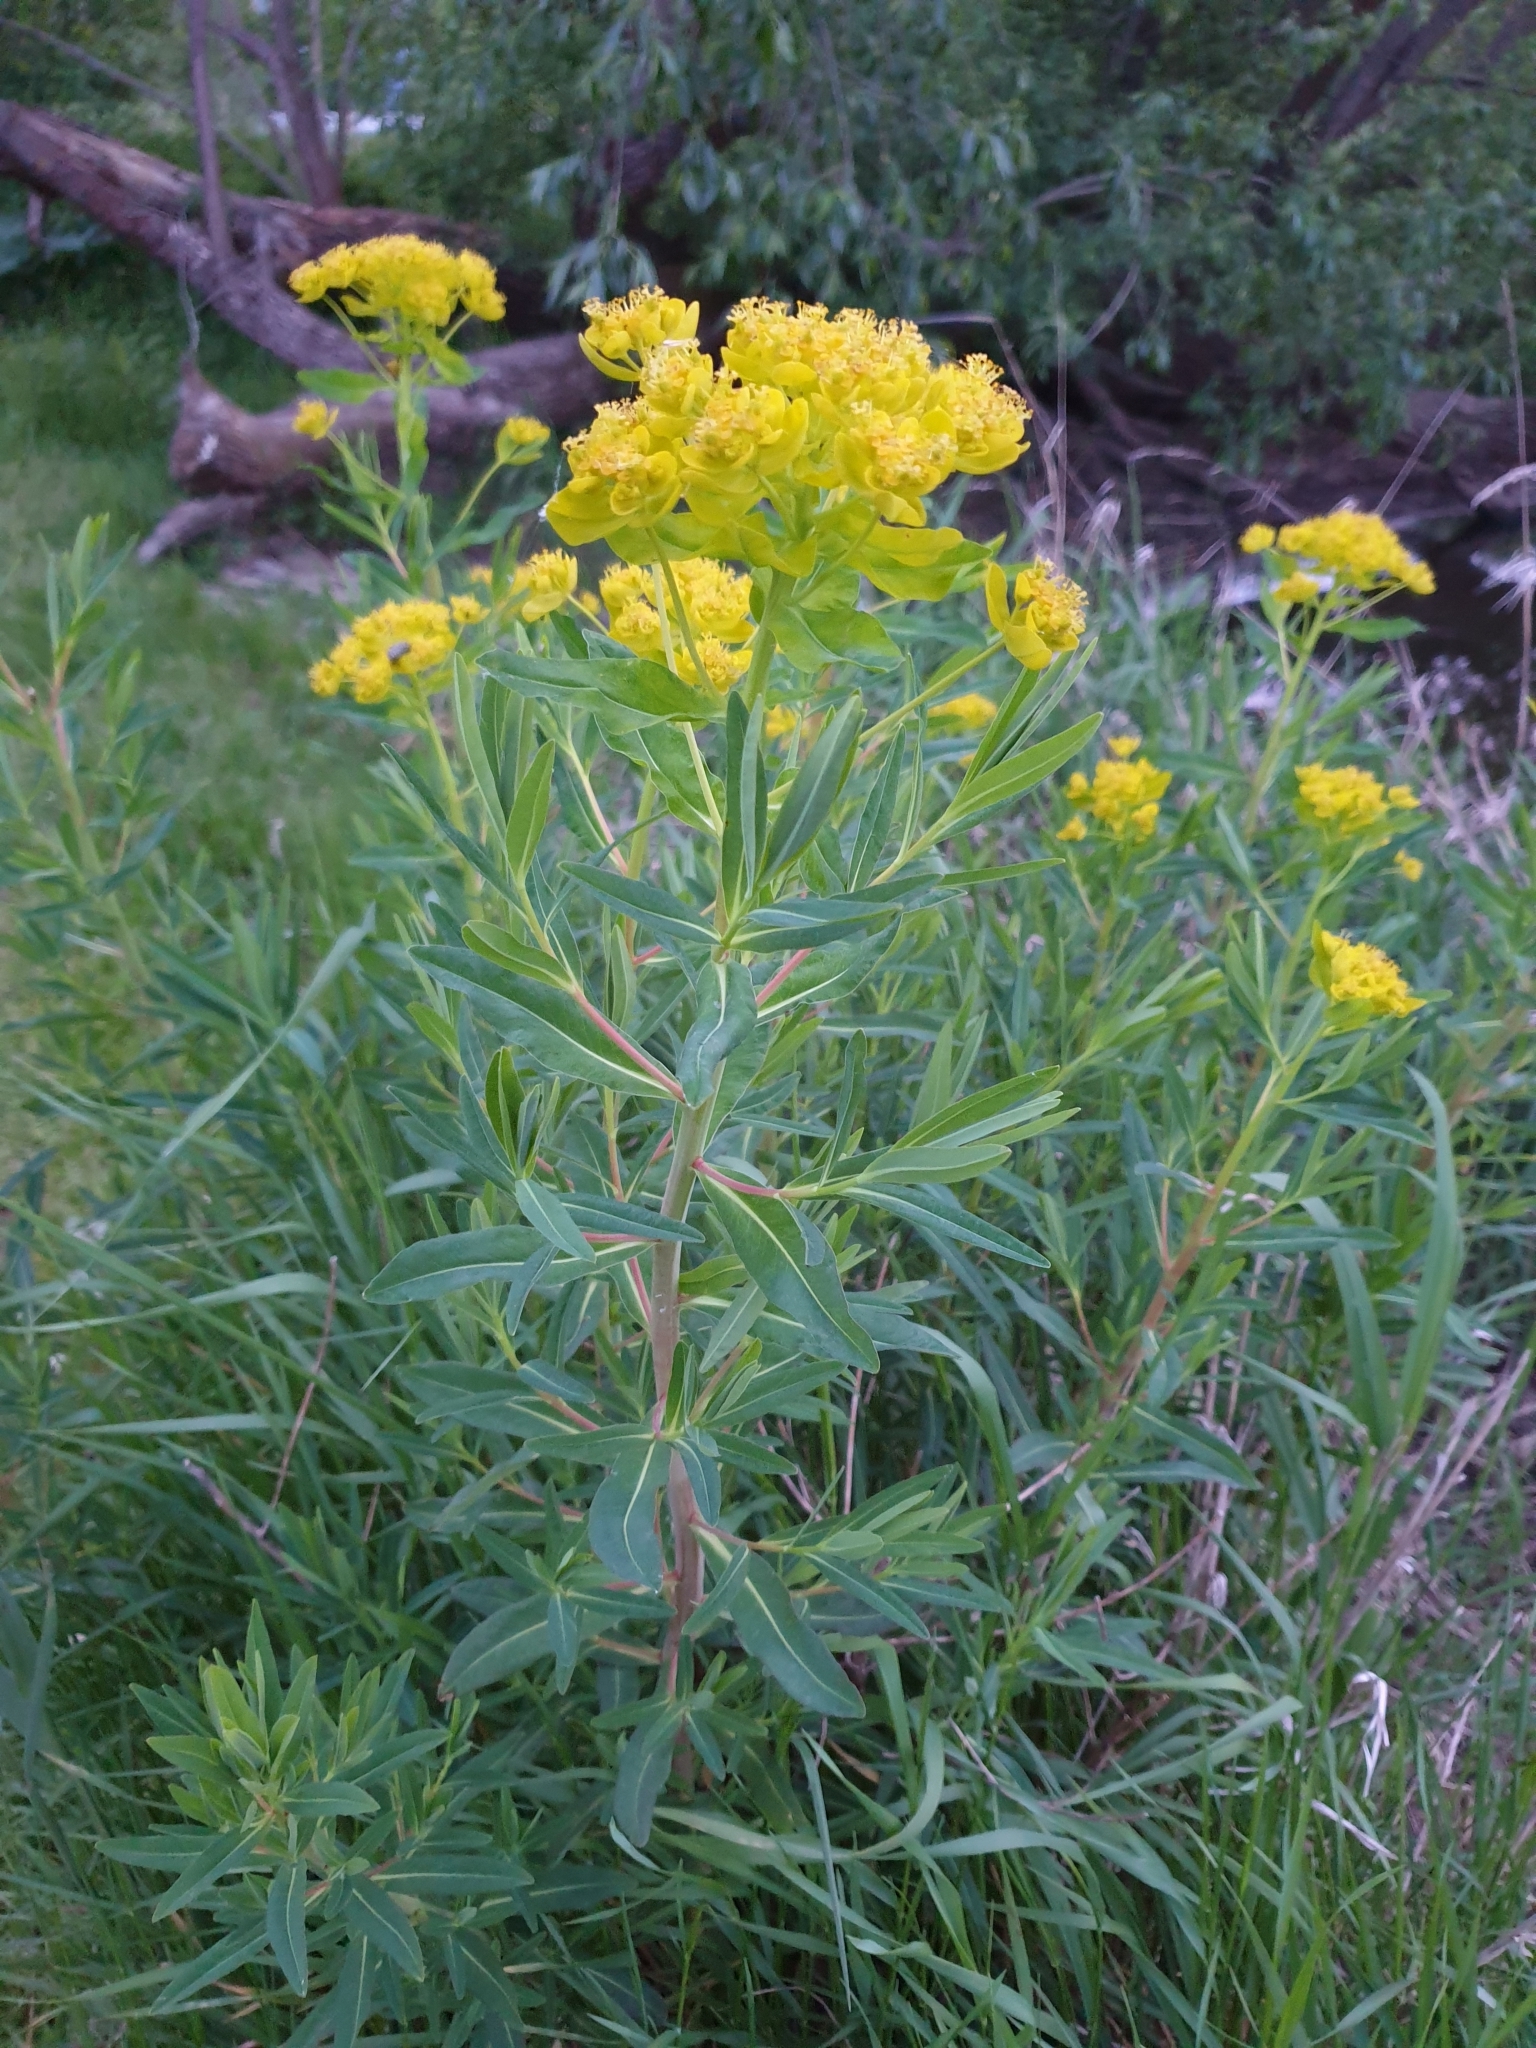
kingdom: Plantae
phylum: Tracheophyta
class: Magnoliopsida
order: Malpighiales
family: Euphorbiaceae
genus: Euphorbia
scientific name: Euphorbia palustris
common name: Marsh spurge
